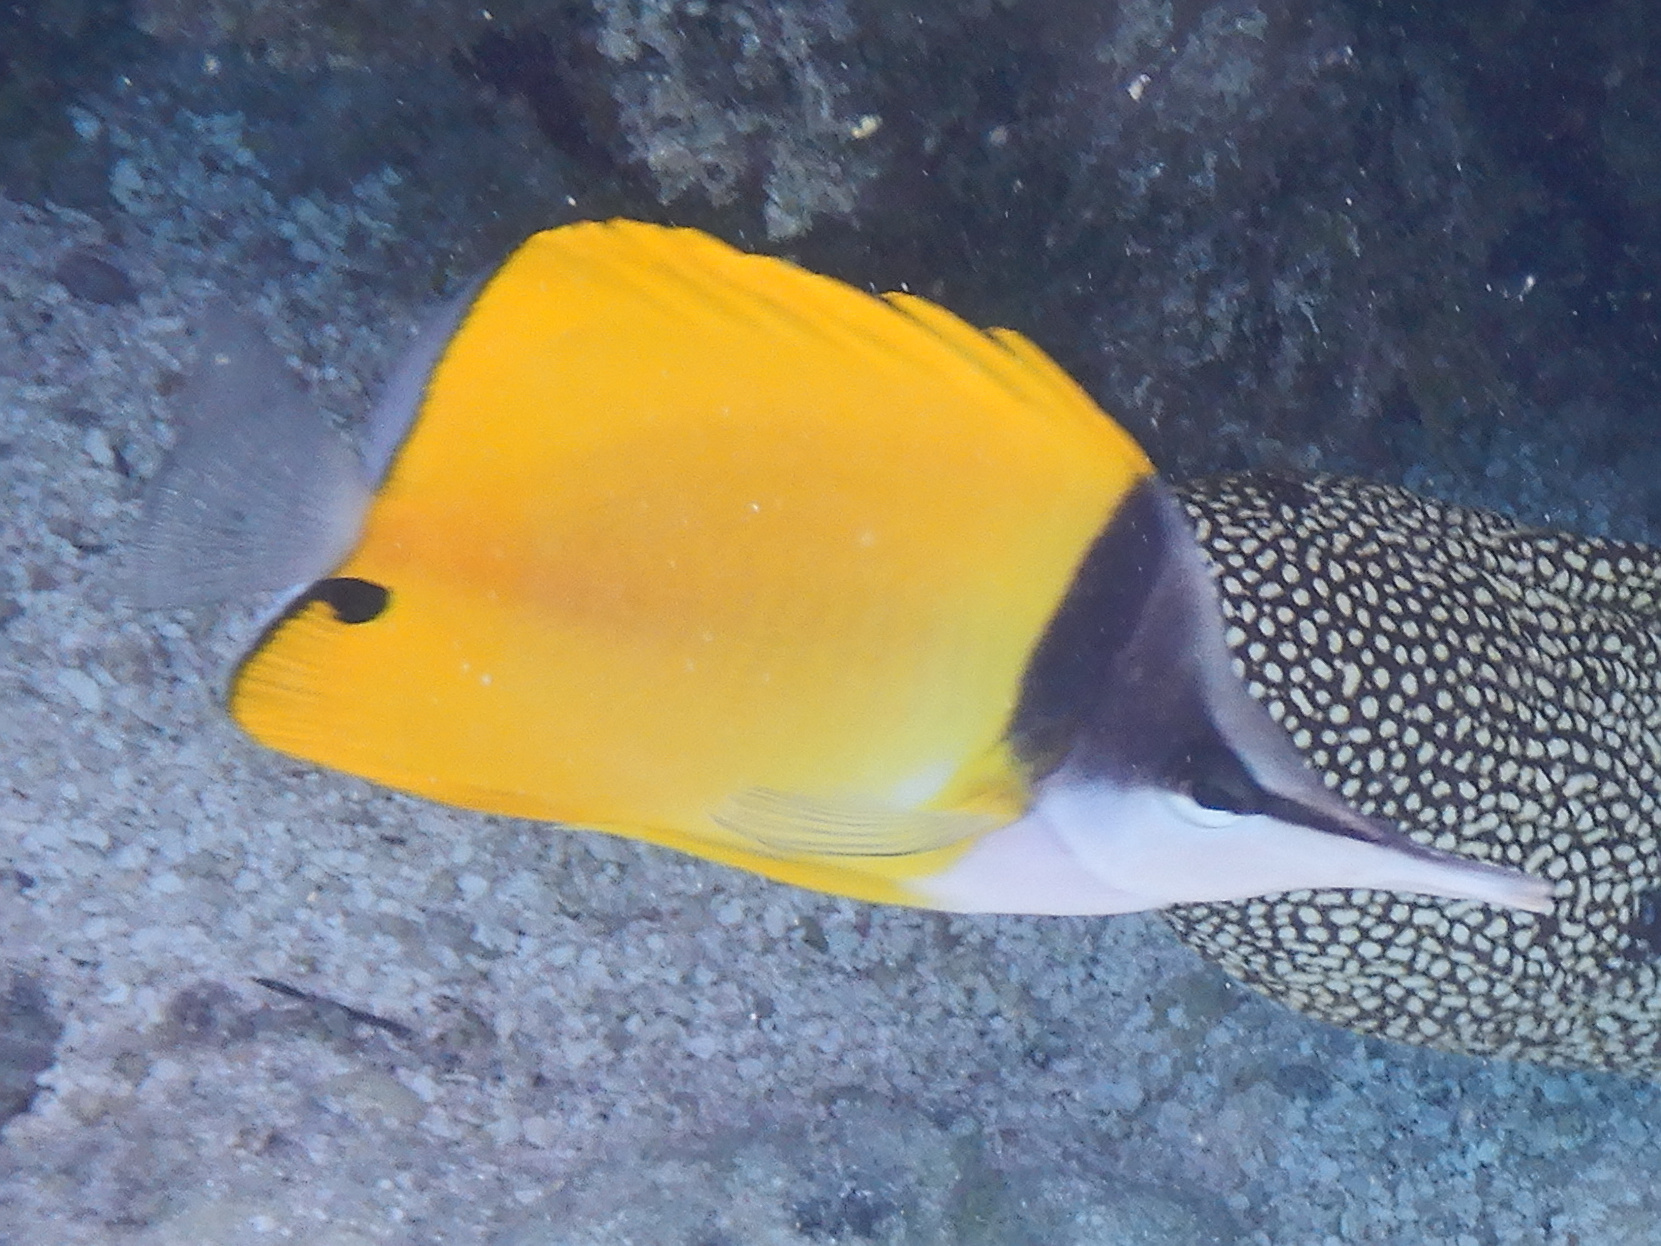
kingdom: Animalia
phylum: Chordata
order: Perciformes
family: Chaetodontidae
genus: Forcipiger
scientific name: Forcipiger flavissimus
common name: Forcepsfish
